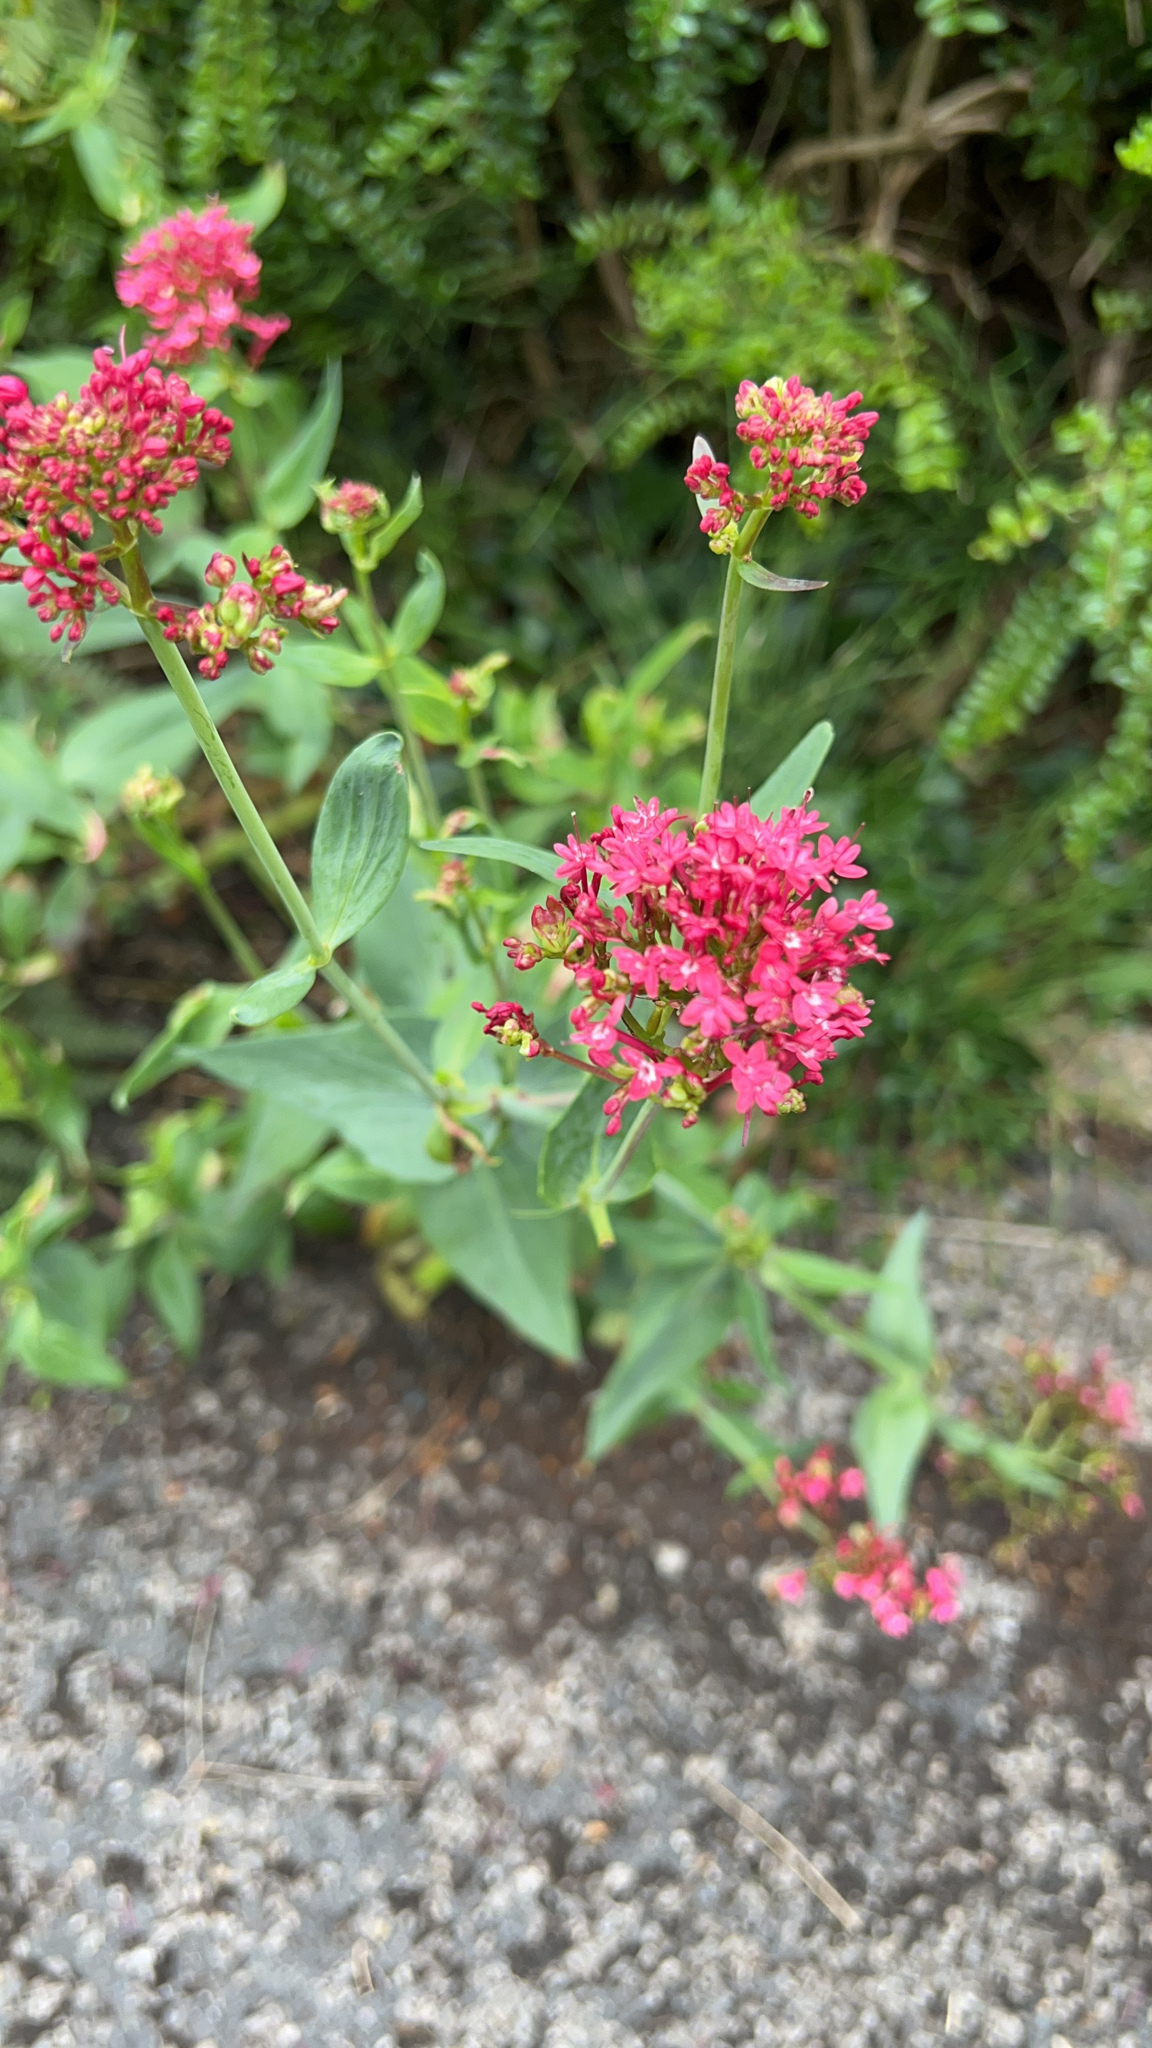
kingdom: Plantae
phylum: Tracheophyta
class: Magnoliopsida
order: Dipsacales
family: Caprifoliaceae
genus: Centranthus
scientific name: Centranthus ruber
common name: Red valerian
